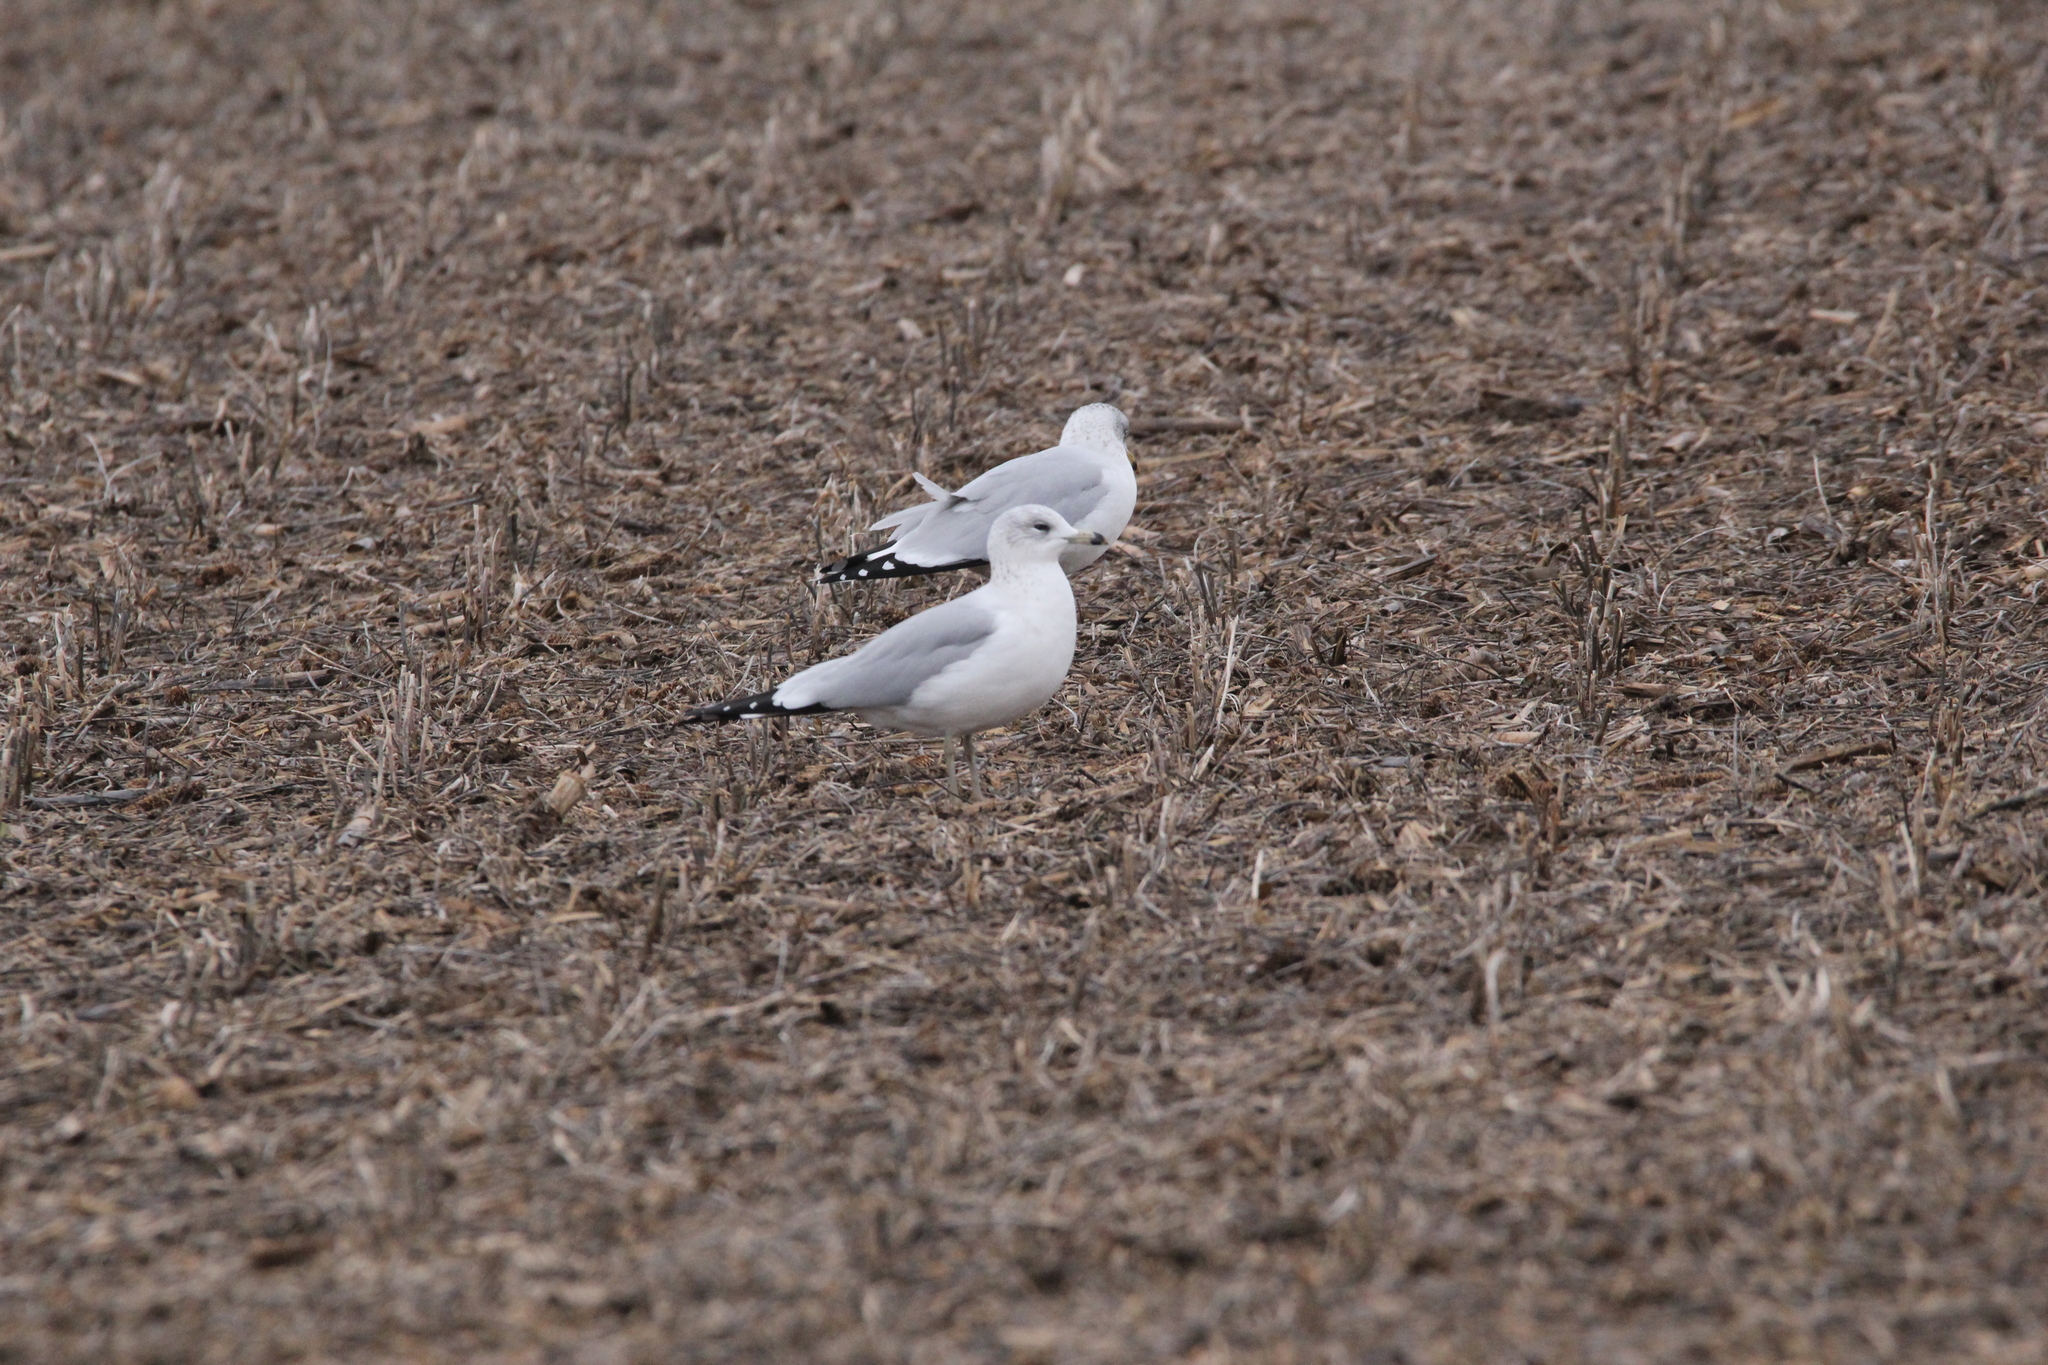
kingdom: Animalia
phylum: Chordata
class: Aves
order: Charadriiformes
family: Laridae
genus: Larus
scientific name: Larus delawarensis
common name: Ring-billed gull
